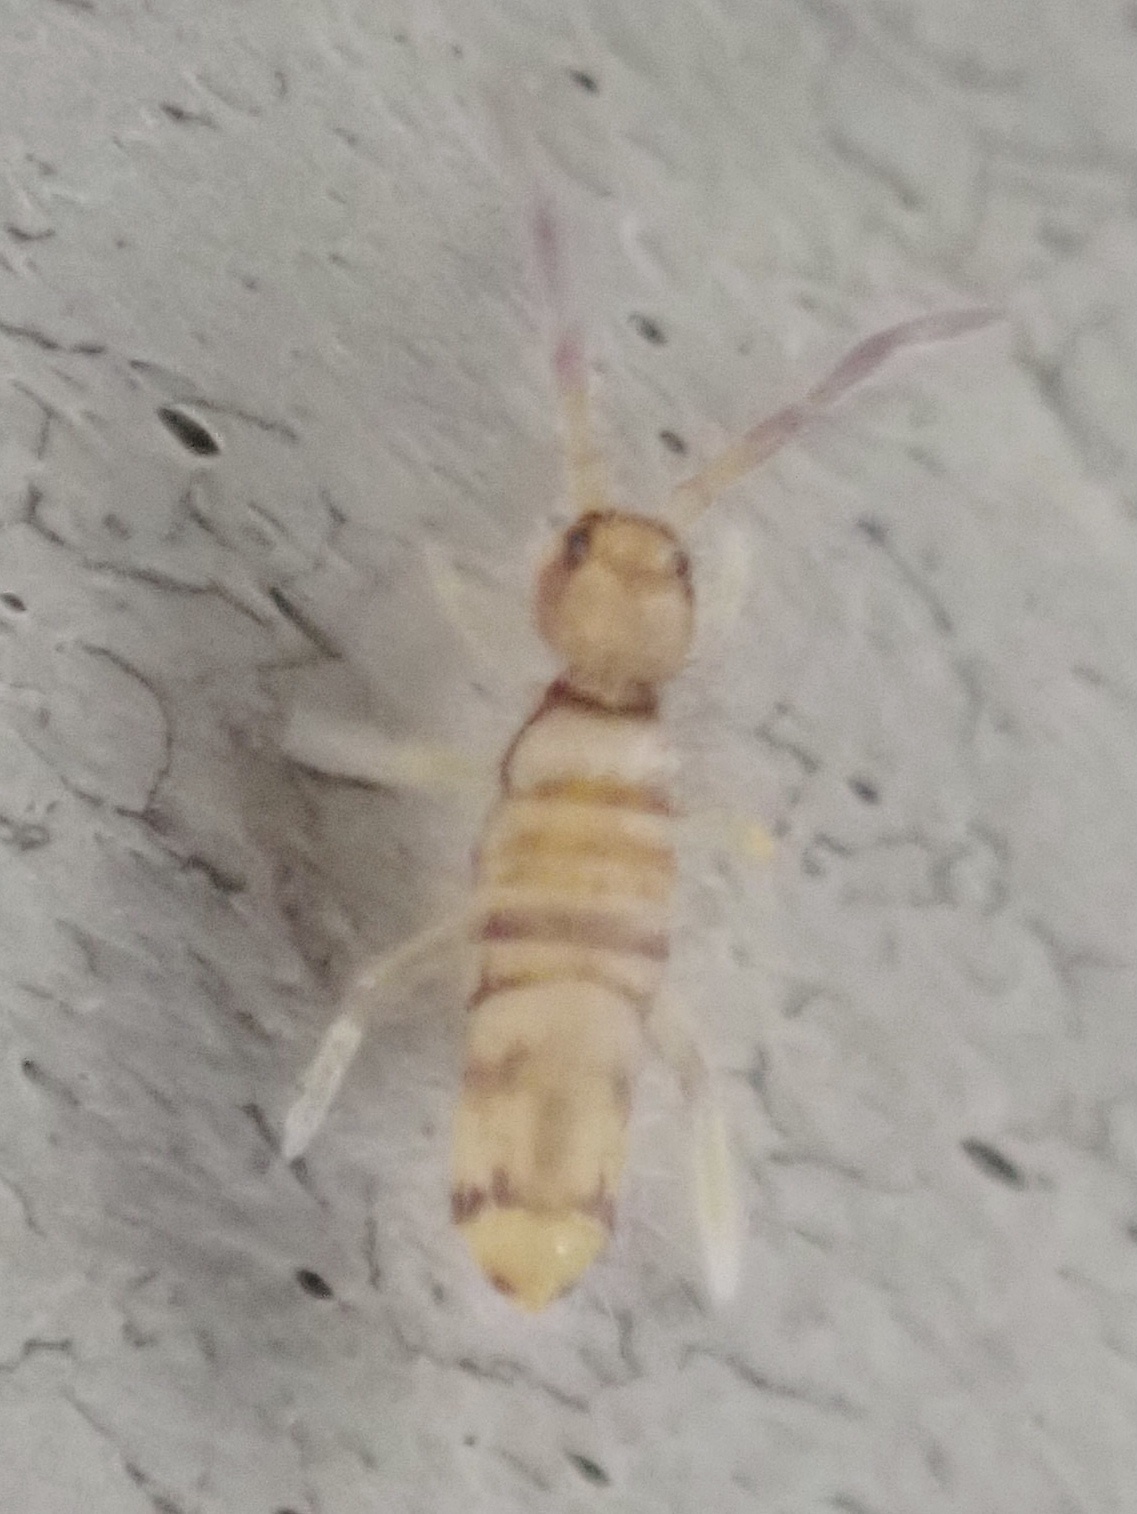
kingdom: Animalia
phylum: Arthropoda
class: Collembola
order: Entomobryomorpha
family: Entomobryidae
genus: Entomobrya
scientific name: Entomobrya atrocincta
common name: Springtail
